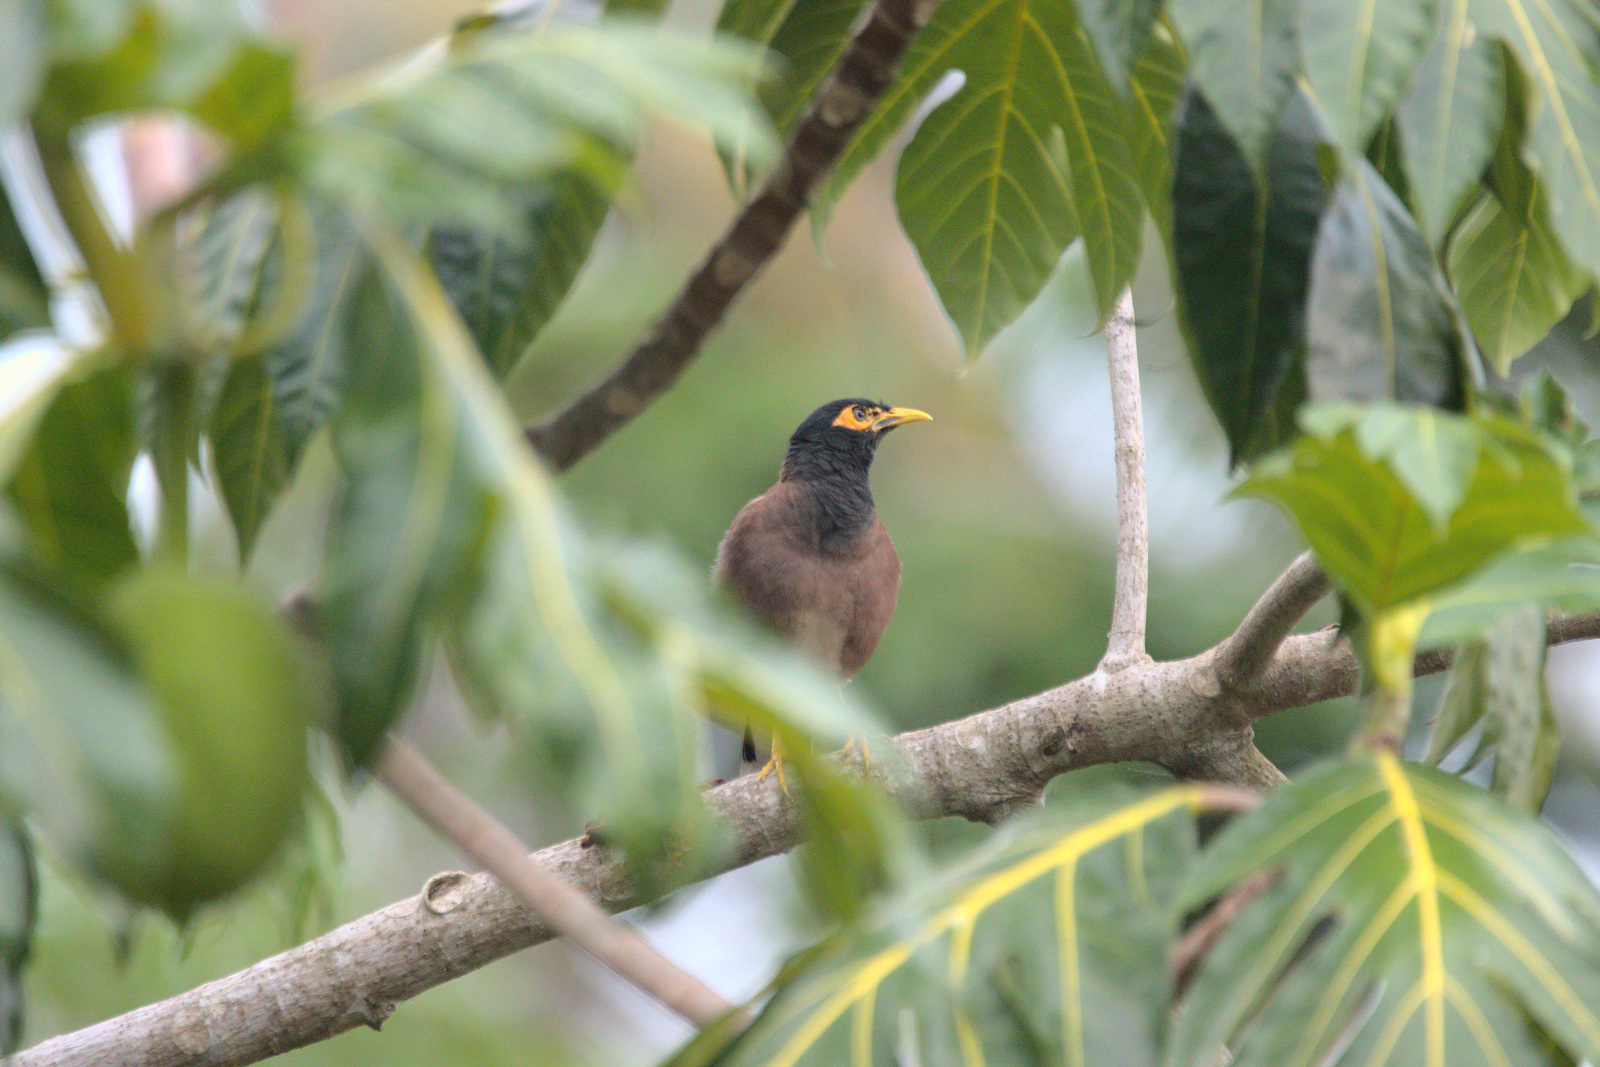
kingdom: Animalia
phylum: Chordata
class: Aves
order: Passeriformes
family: Sturnidae
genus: Acridotheres
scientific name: Acridotheres tristis
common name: Common myna
